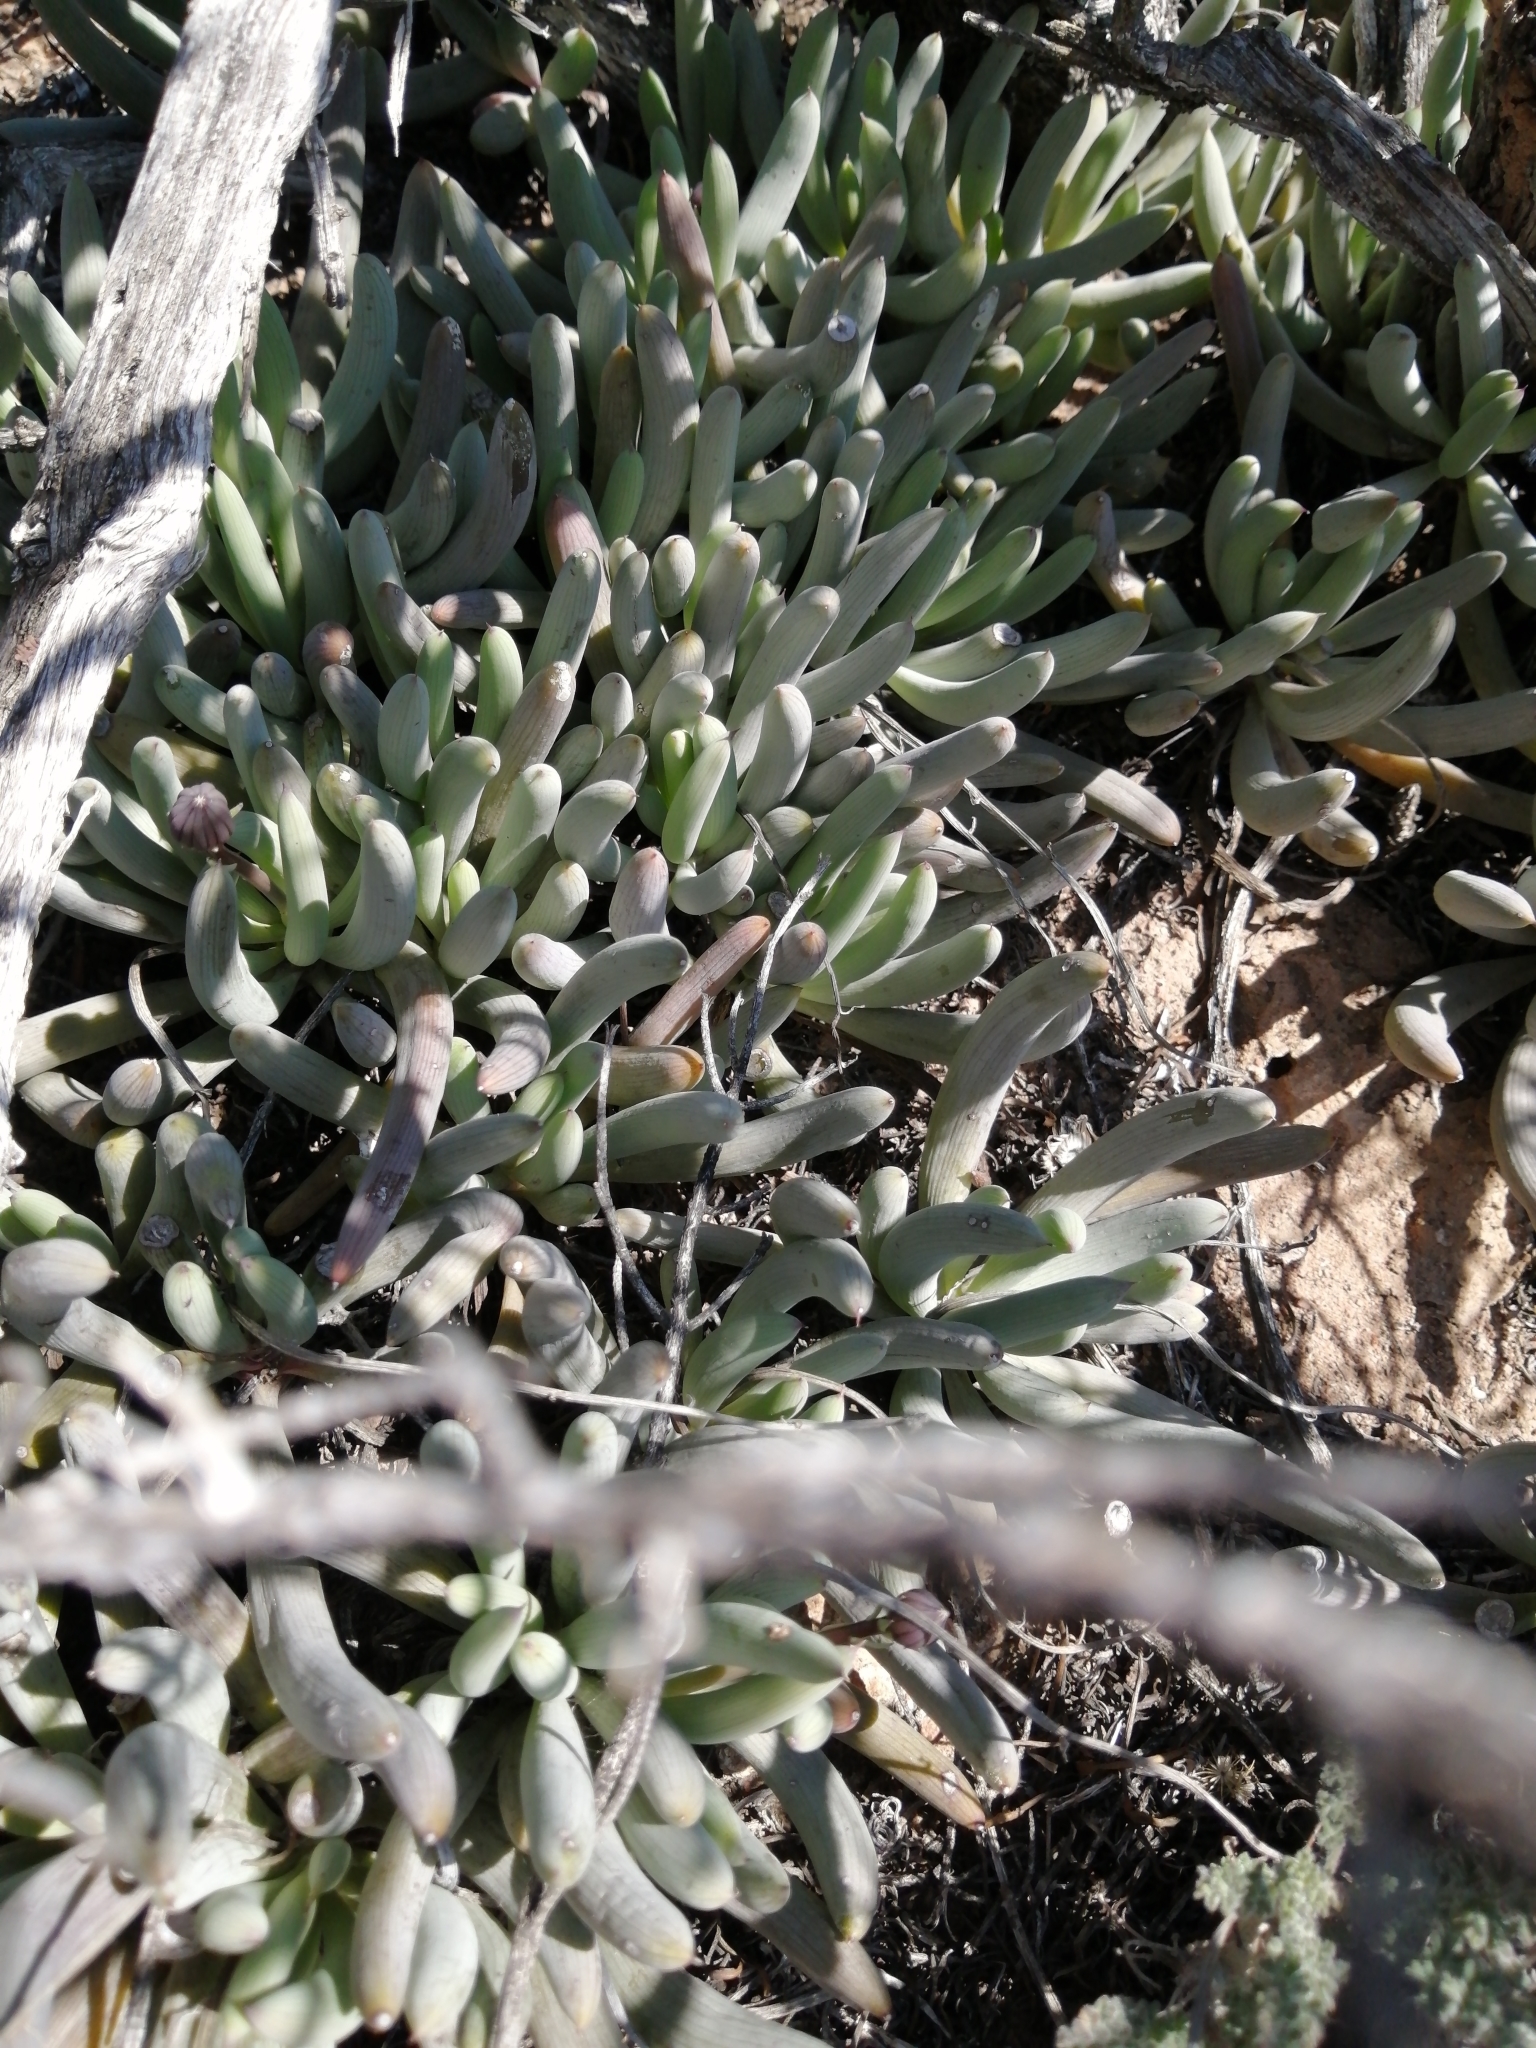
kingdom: Plantae
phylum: Tracheophyta
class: Magnoliopsida
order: Asterales
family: Asteraceae
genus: Curio
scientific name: Curio acaulis
